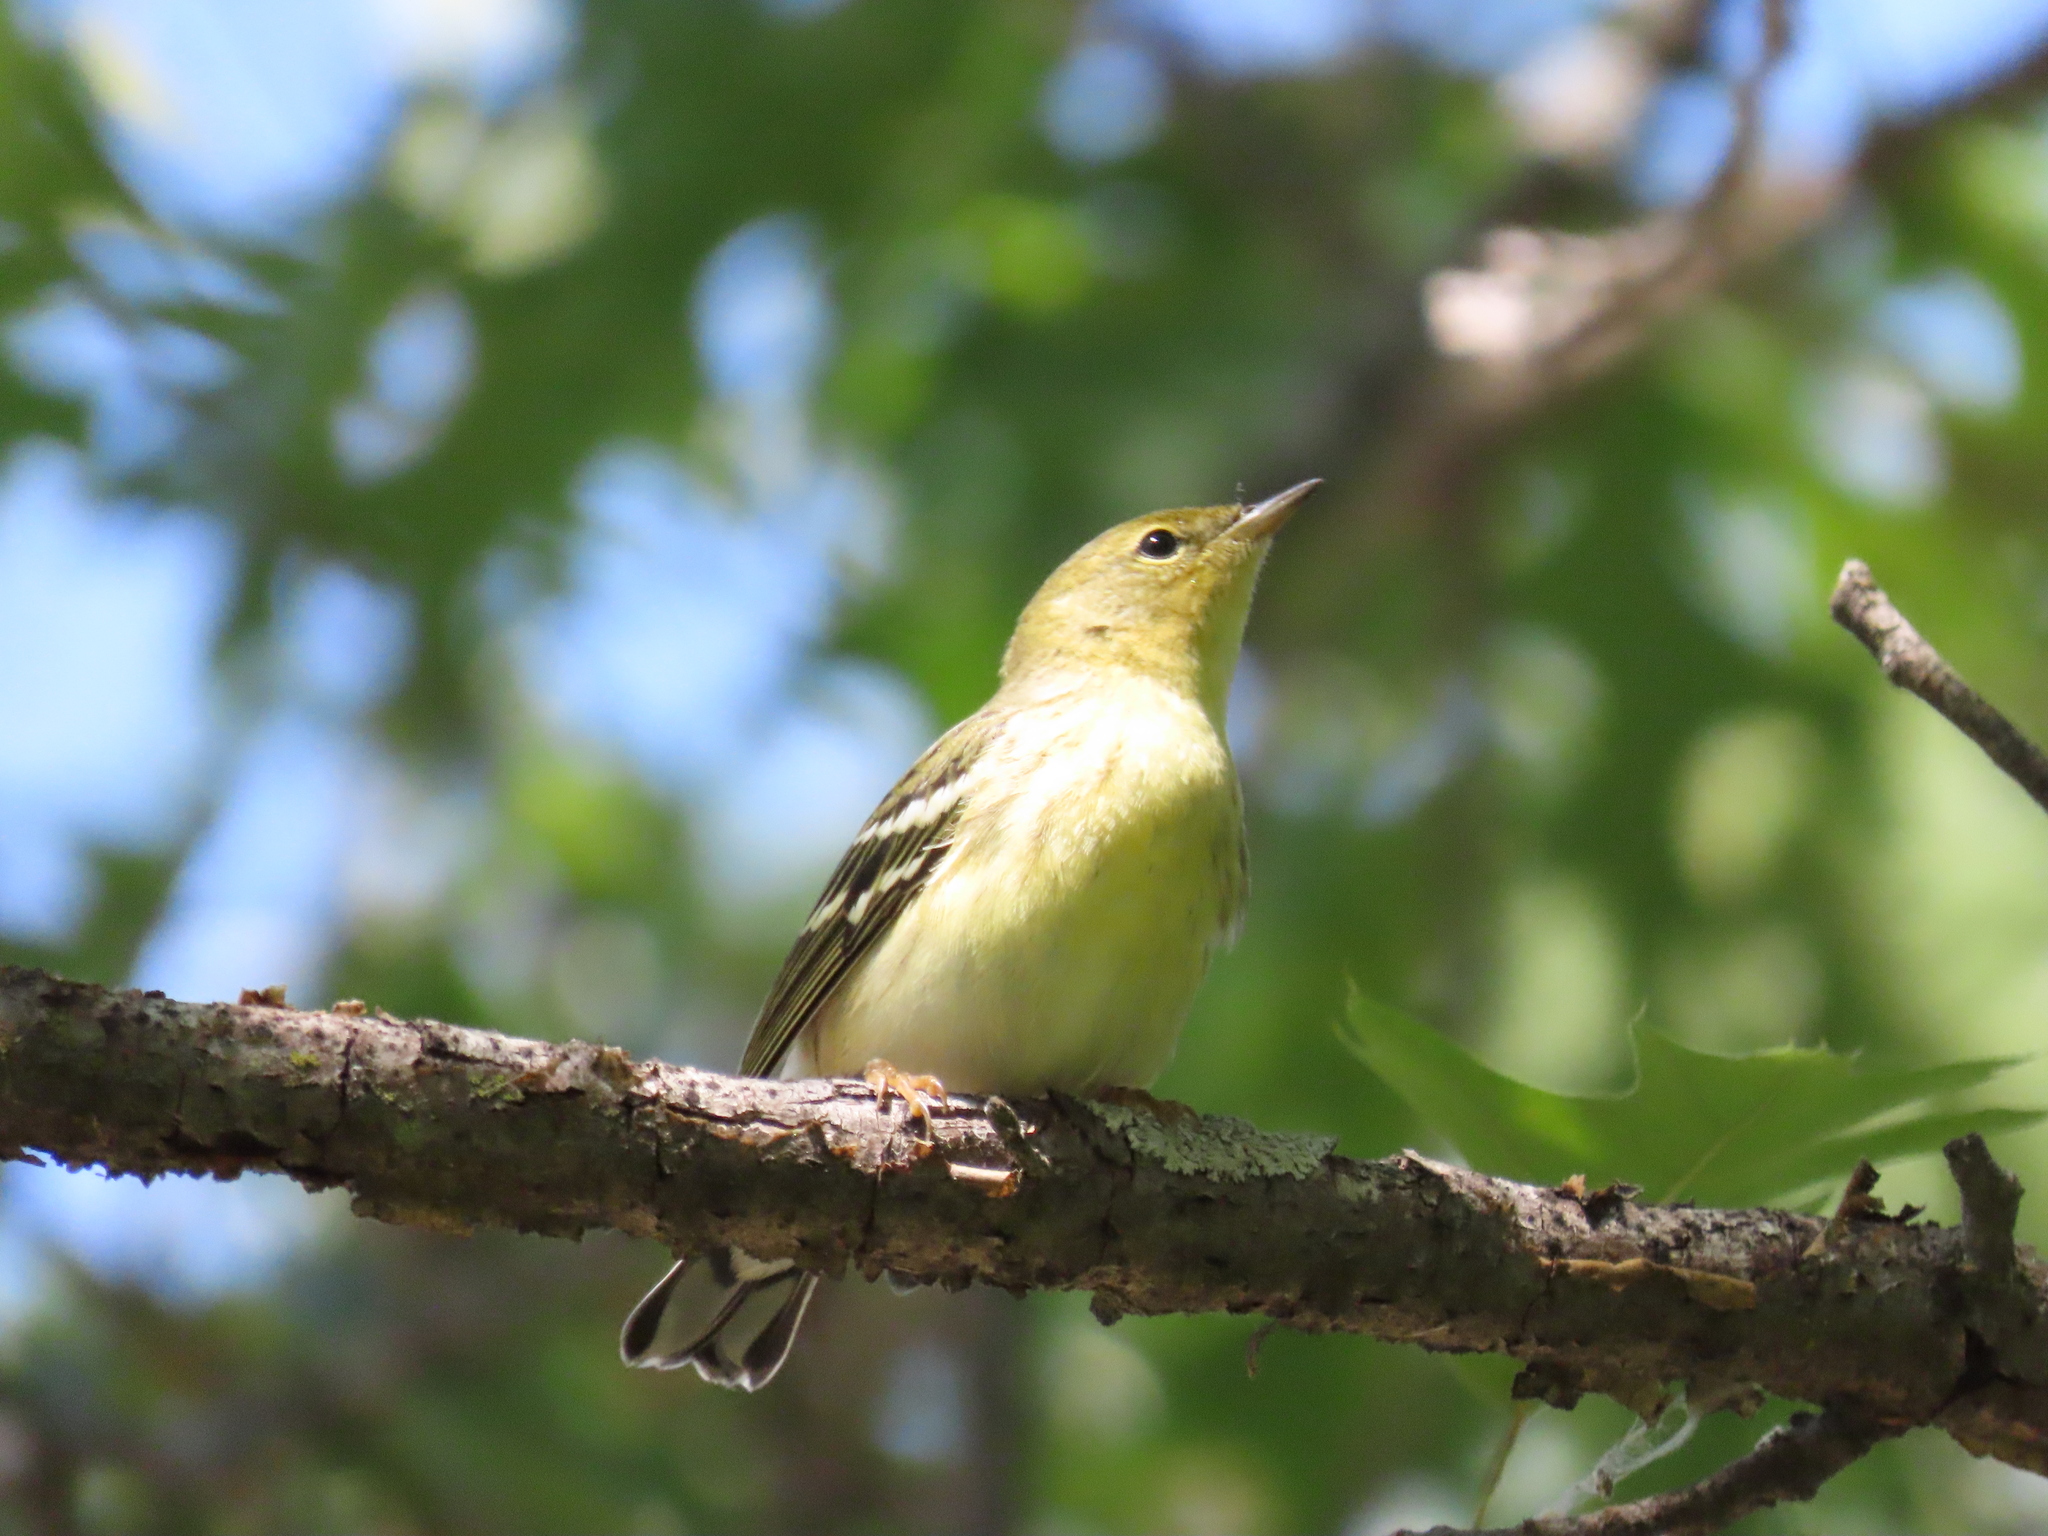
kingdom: Animalia
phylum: Chordata
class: Aves
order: Passeriformes
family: Parulidae
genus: Setophaga
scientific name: Setophaga striata
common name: Blackpoll warbler
